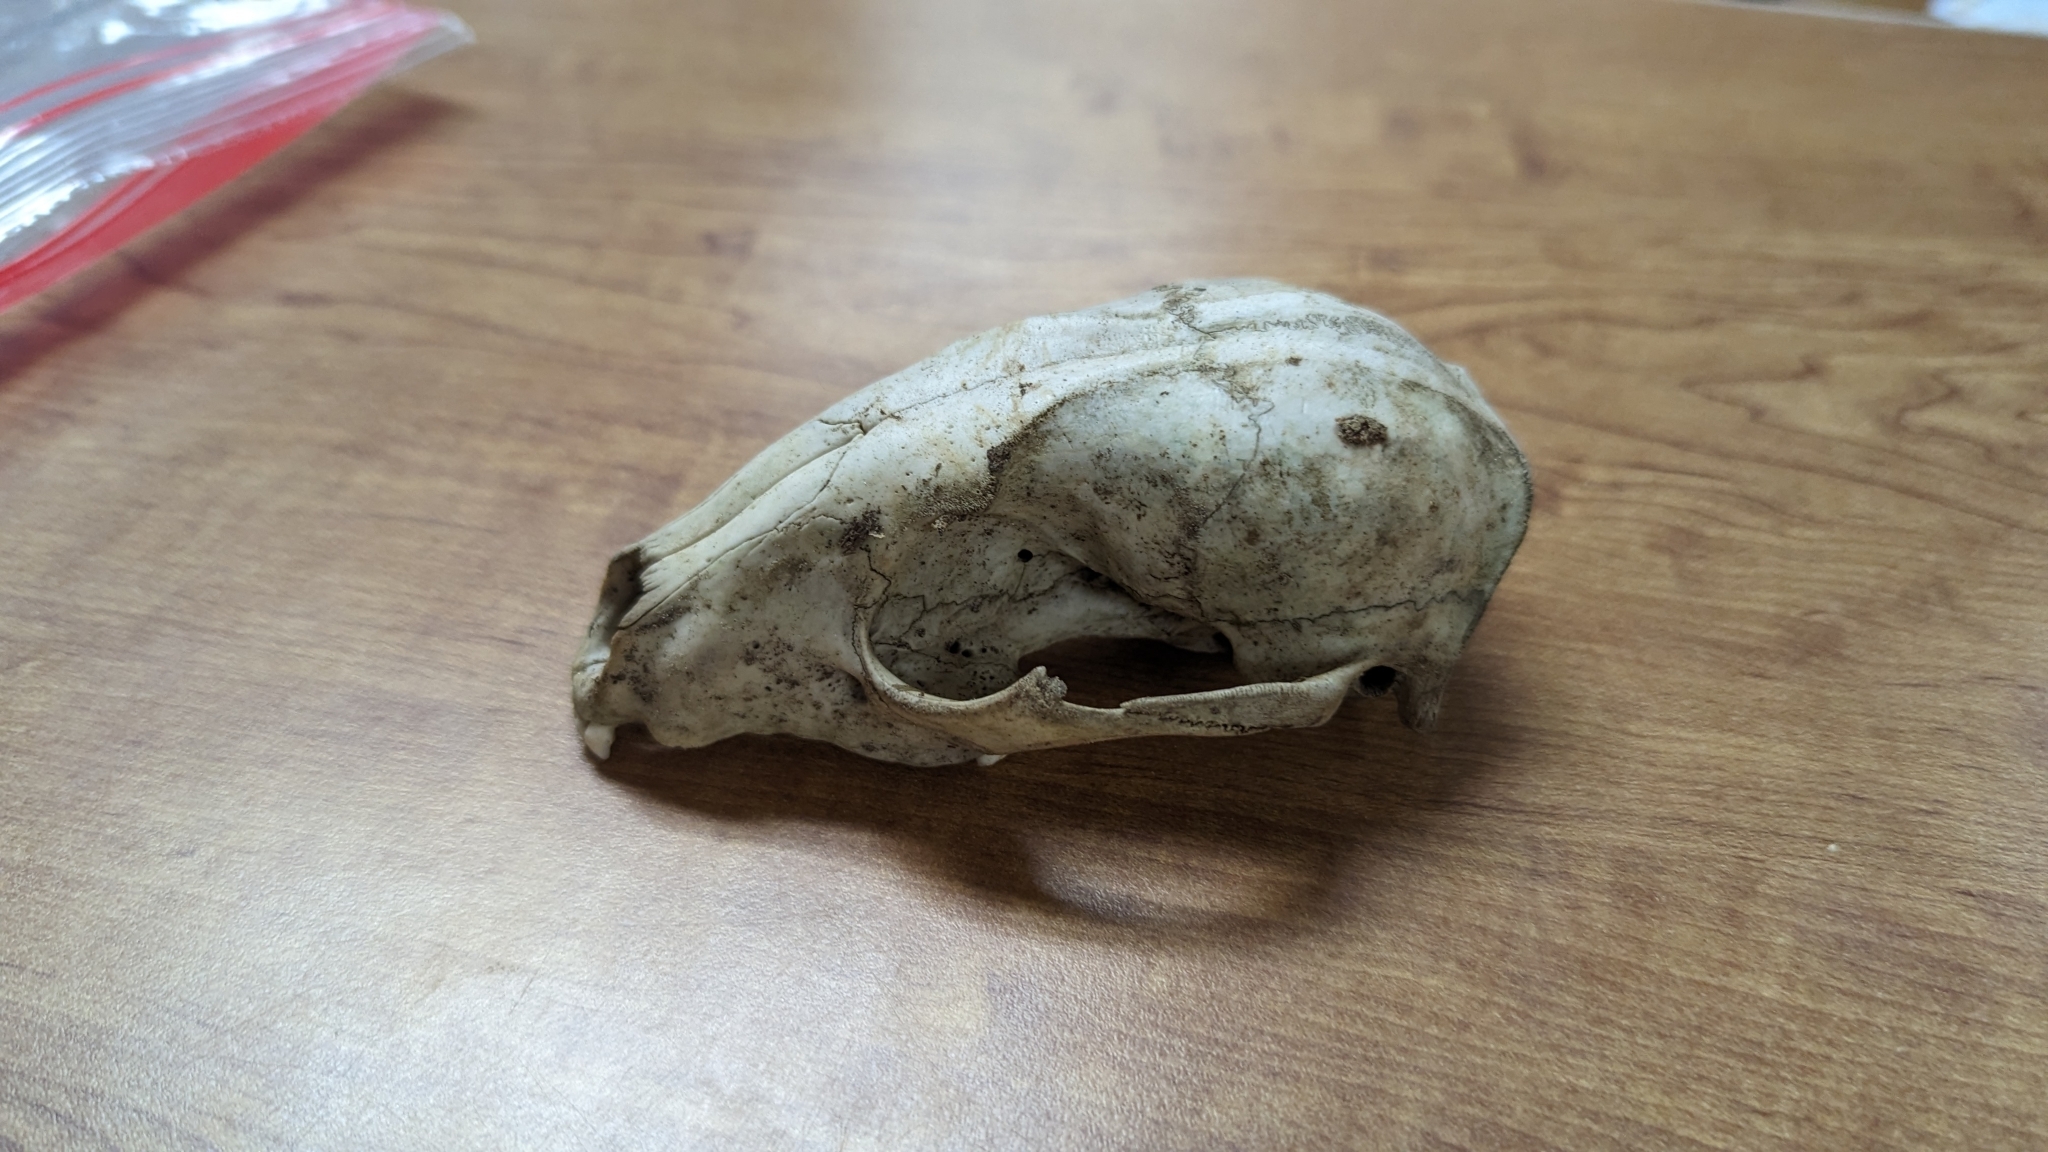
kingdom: Animalia
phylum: Chordata
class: Mammalia
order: Carnivora
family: Procyonidae
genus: Procyon
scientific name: Procyon lotor
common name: Raccoon
